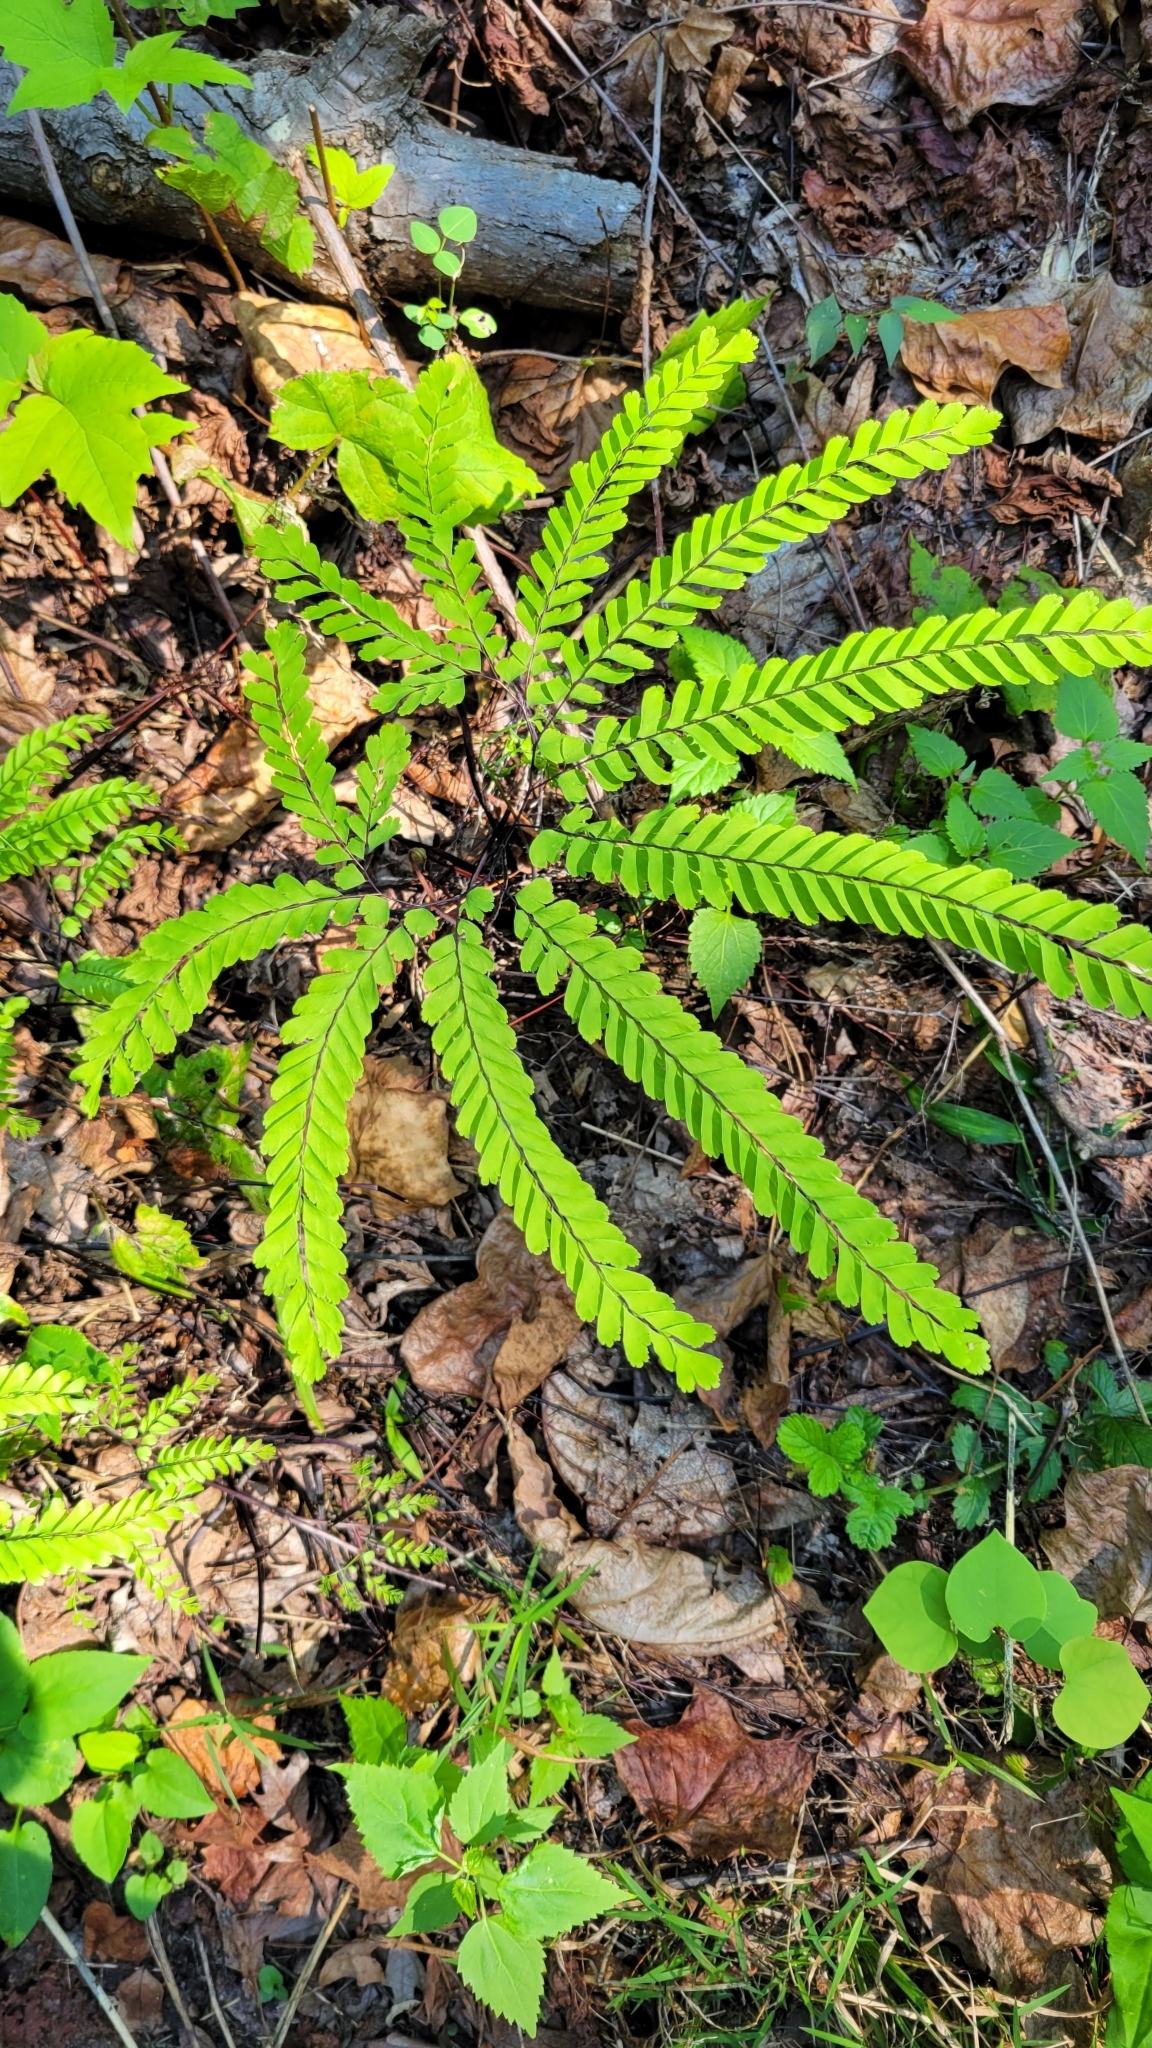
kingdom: Plantae
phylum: Tracheophyta
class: Polypodiopsida
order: Polypodiales
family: Pteridaceae
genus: Adiantum
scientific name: Adiantum pedatum
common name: Five-finger fern
